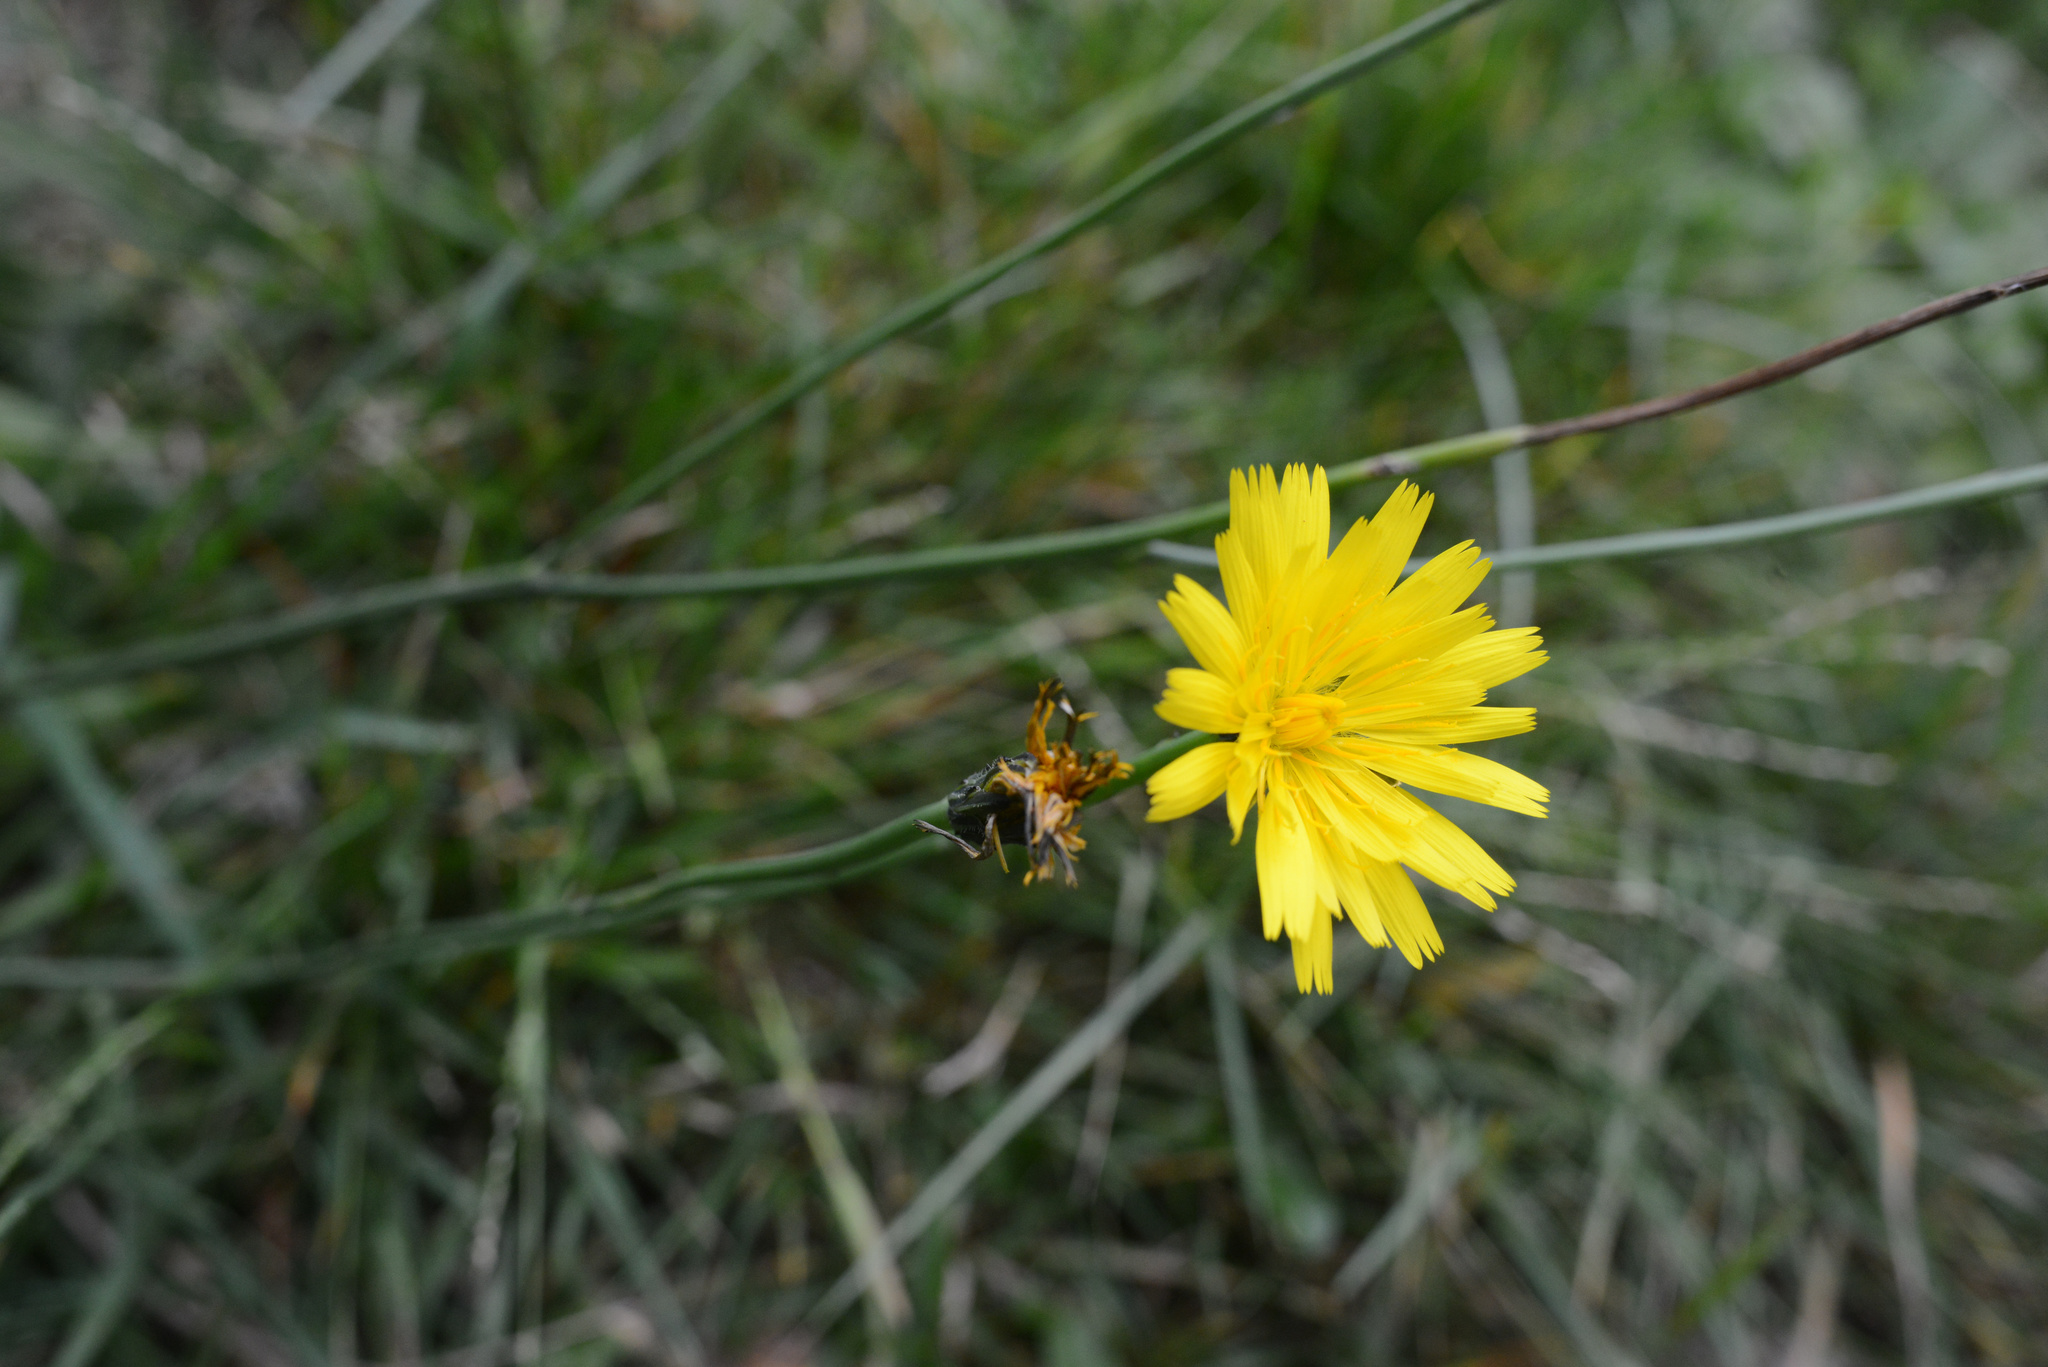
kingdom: Plantae
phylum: Tracheophyta
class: Magnoliopsida
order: Asterales
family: Asteraceae
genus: Hypochaeris
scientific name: Hypochaeris radicata
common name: Flatweed
